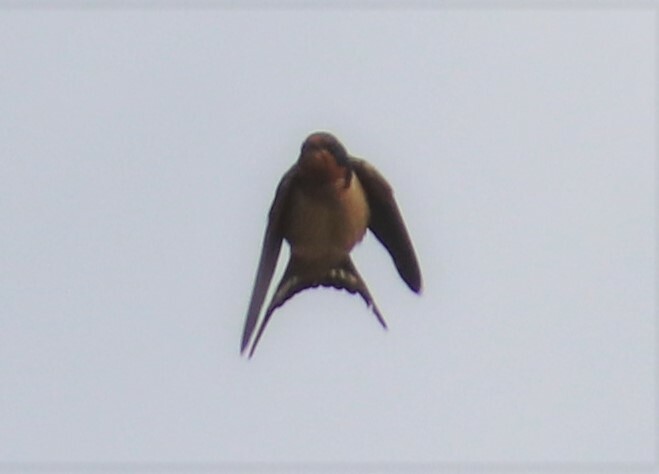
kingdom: Animalia
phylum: Chordata
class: Aves
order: Passeriformes
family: Hirundinidae
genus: Hirundo
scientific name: Hirundo rustica
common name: Barn swallow
